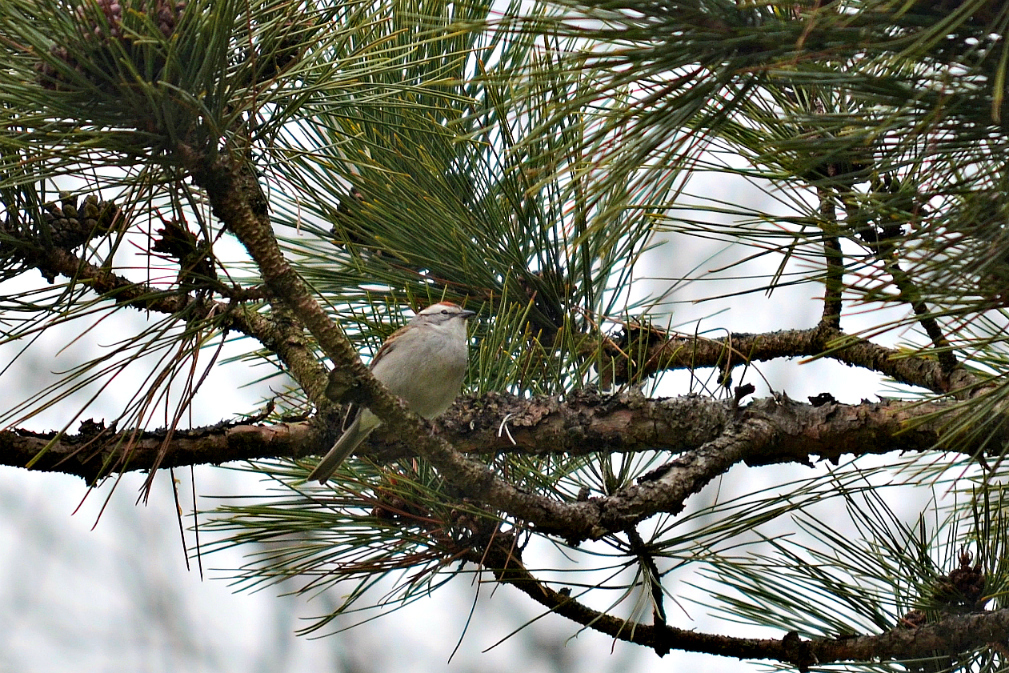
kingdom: Animalia
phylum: Chordata
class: Aves
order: Passeriformes
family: Passerellidae
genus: Spizella
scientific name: Spizella passerina
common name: Chipping sparrow
